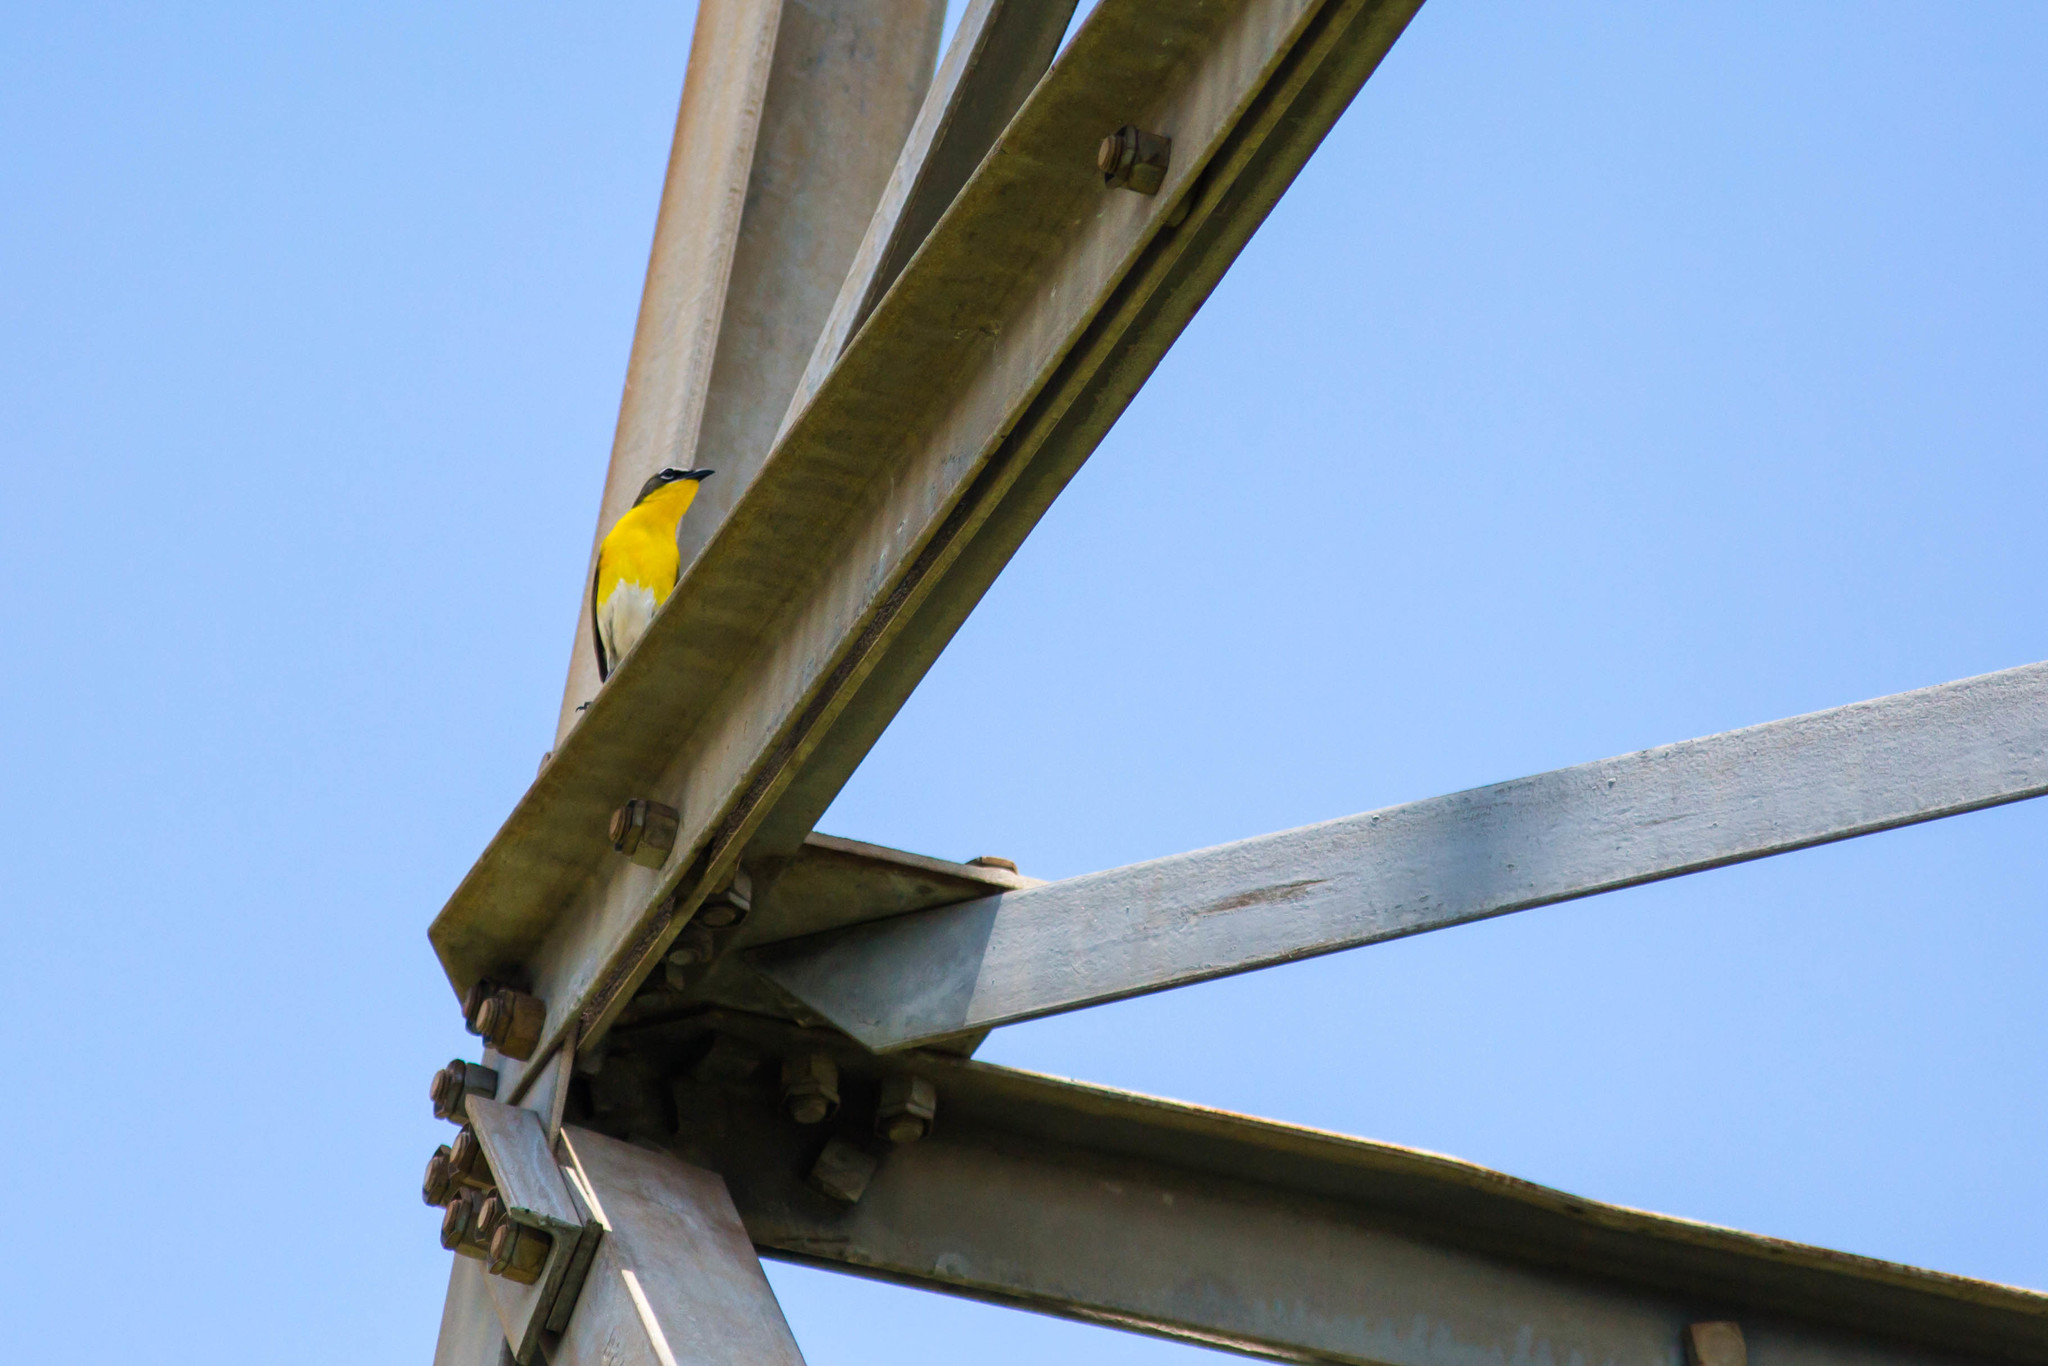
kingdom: Animalia
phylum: Chordata
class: Aves
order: Passeriformes
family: Parulidae
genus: Icteria
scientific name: Icteria virens
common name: Yellow-breasted chat
